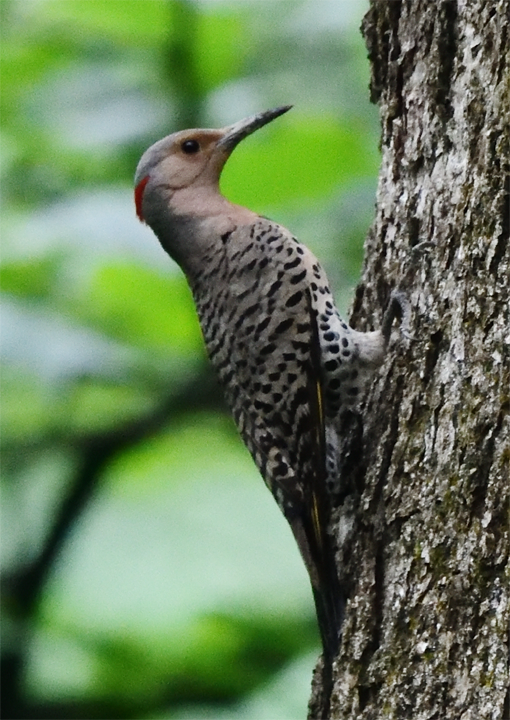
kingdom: Animalia
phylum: Chordata
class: Aves
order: Piciformes
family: Picidae
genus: Colaptes
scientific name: Colaptes auratus
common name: Northern flicker
